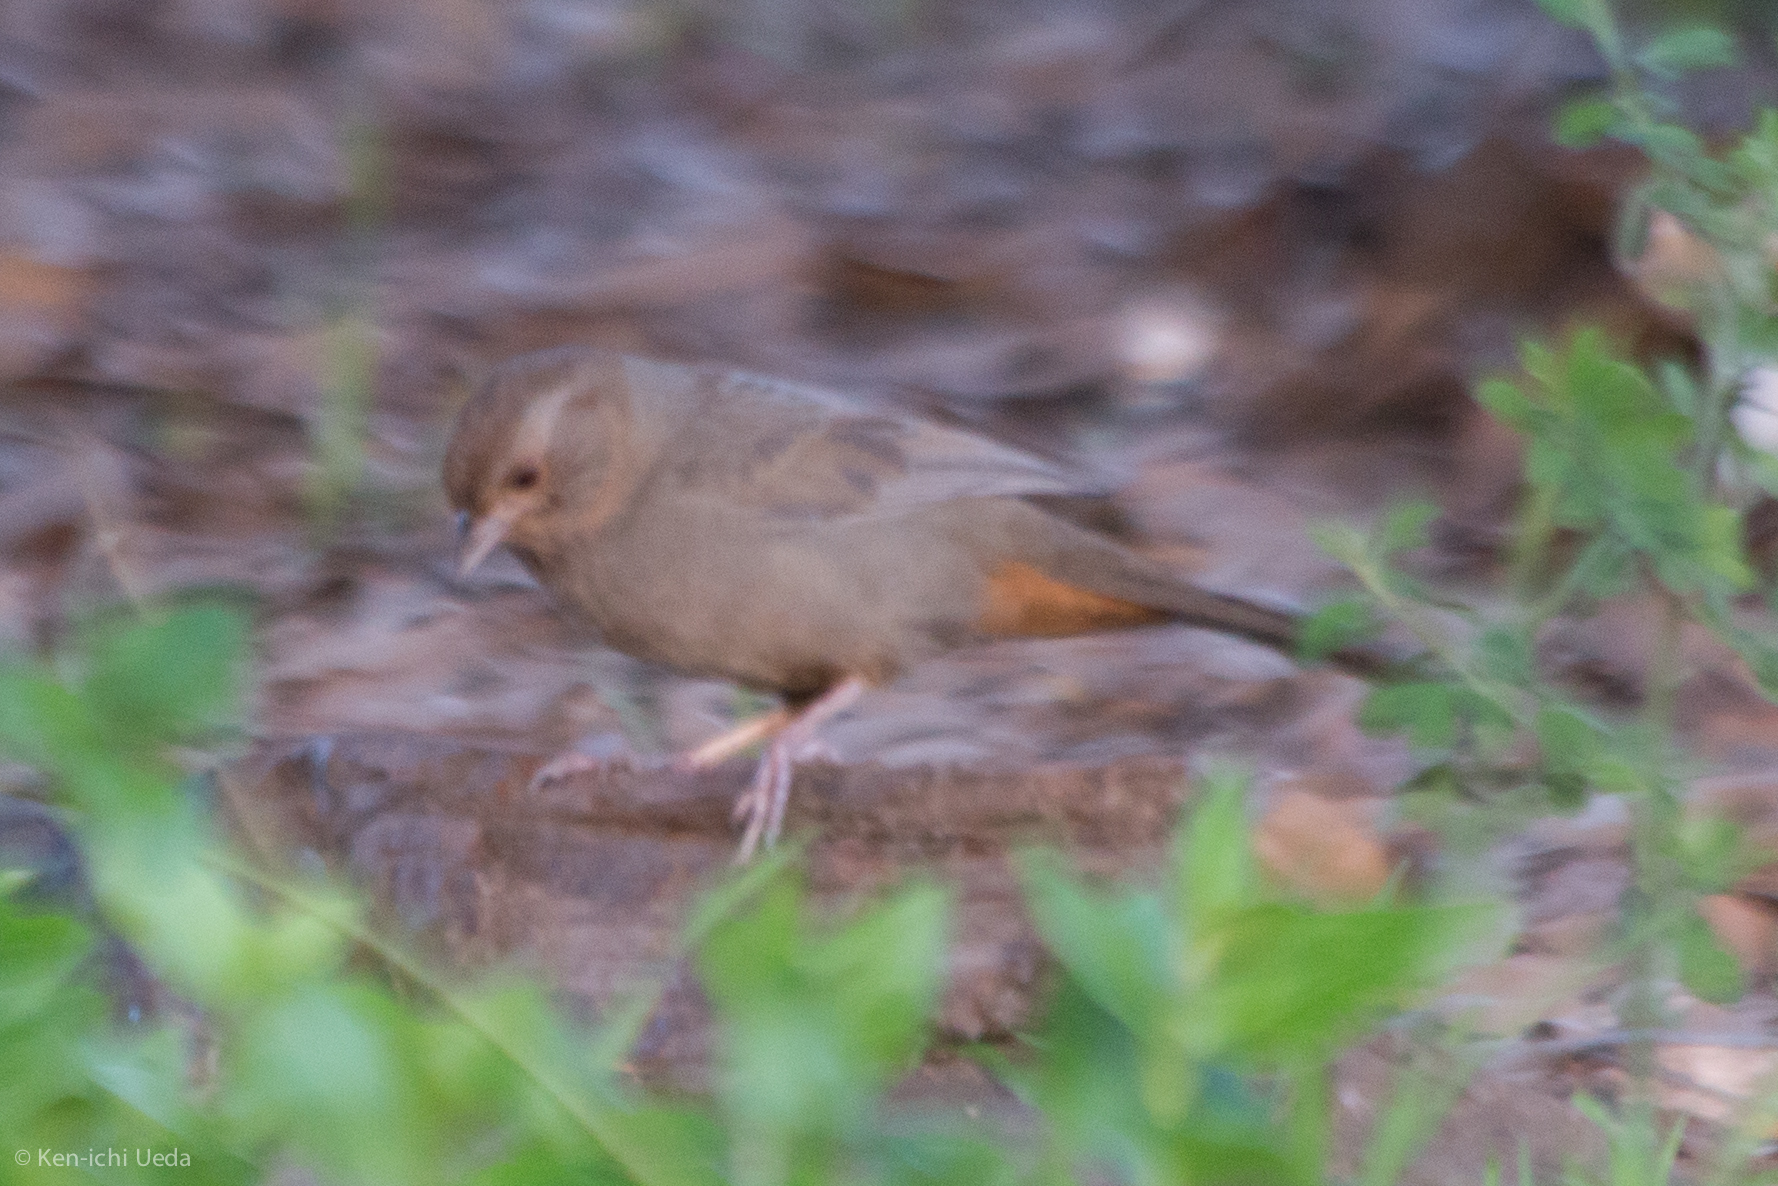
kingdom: Animalia
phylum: Chordata
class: Aves
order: Passeriformes
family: Passerellidae
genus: Melozone
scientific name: Melozone crissalis
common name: California towhee
